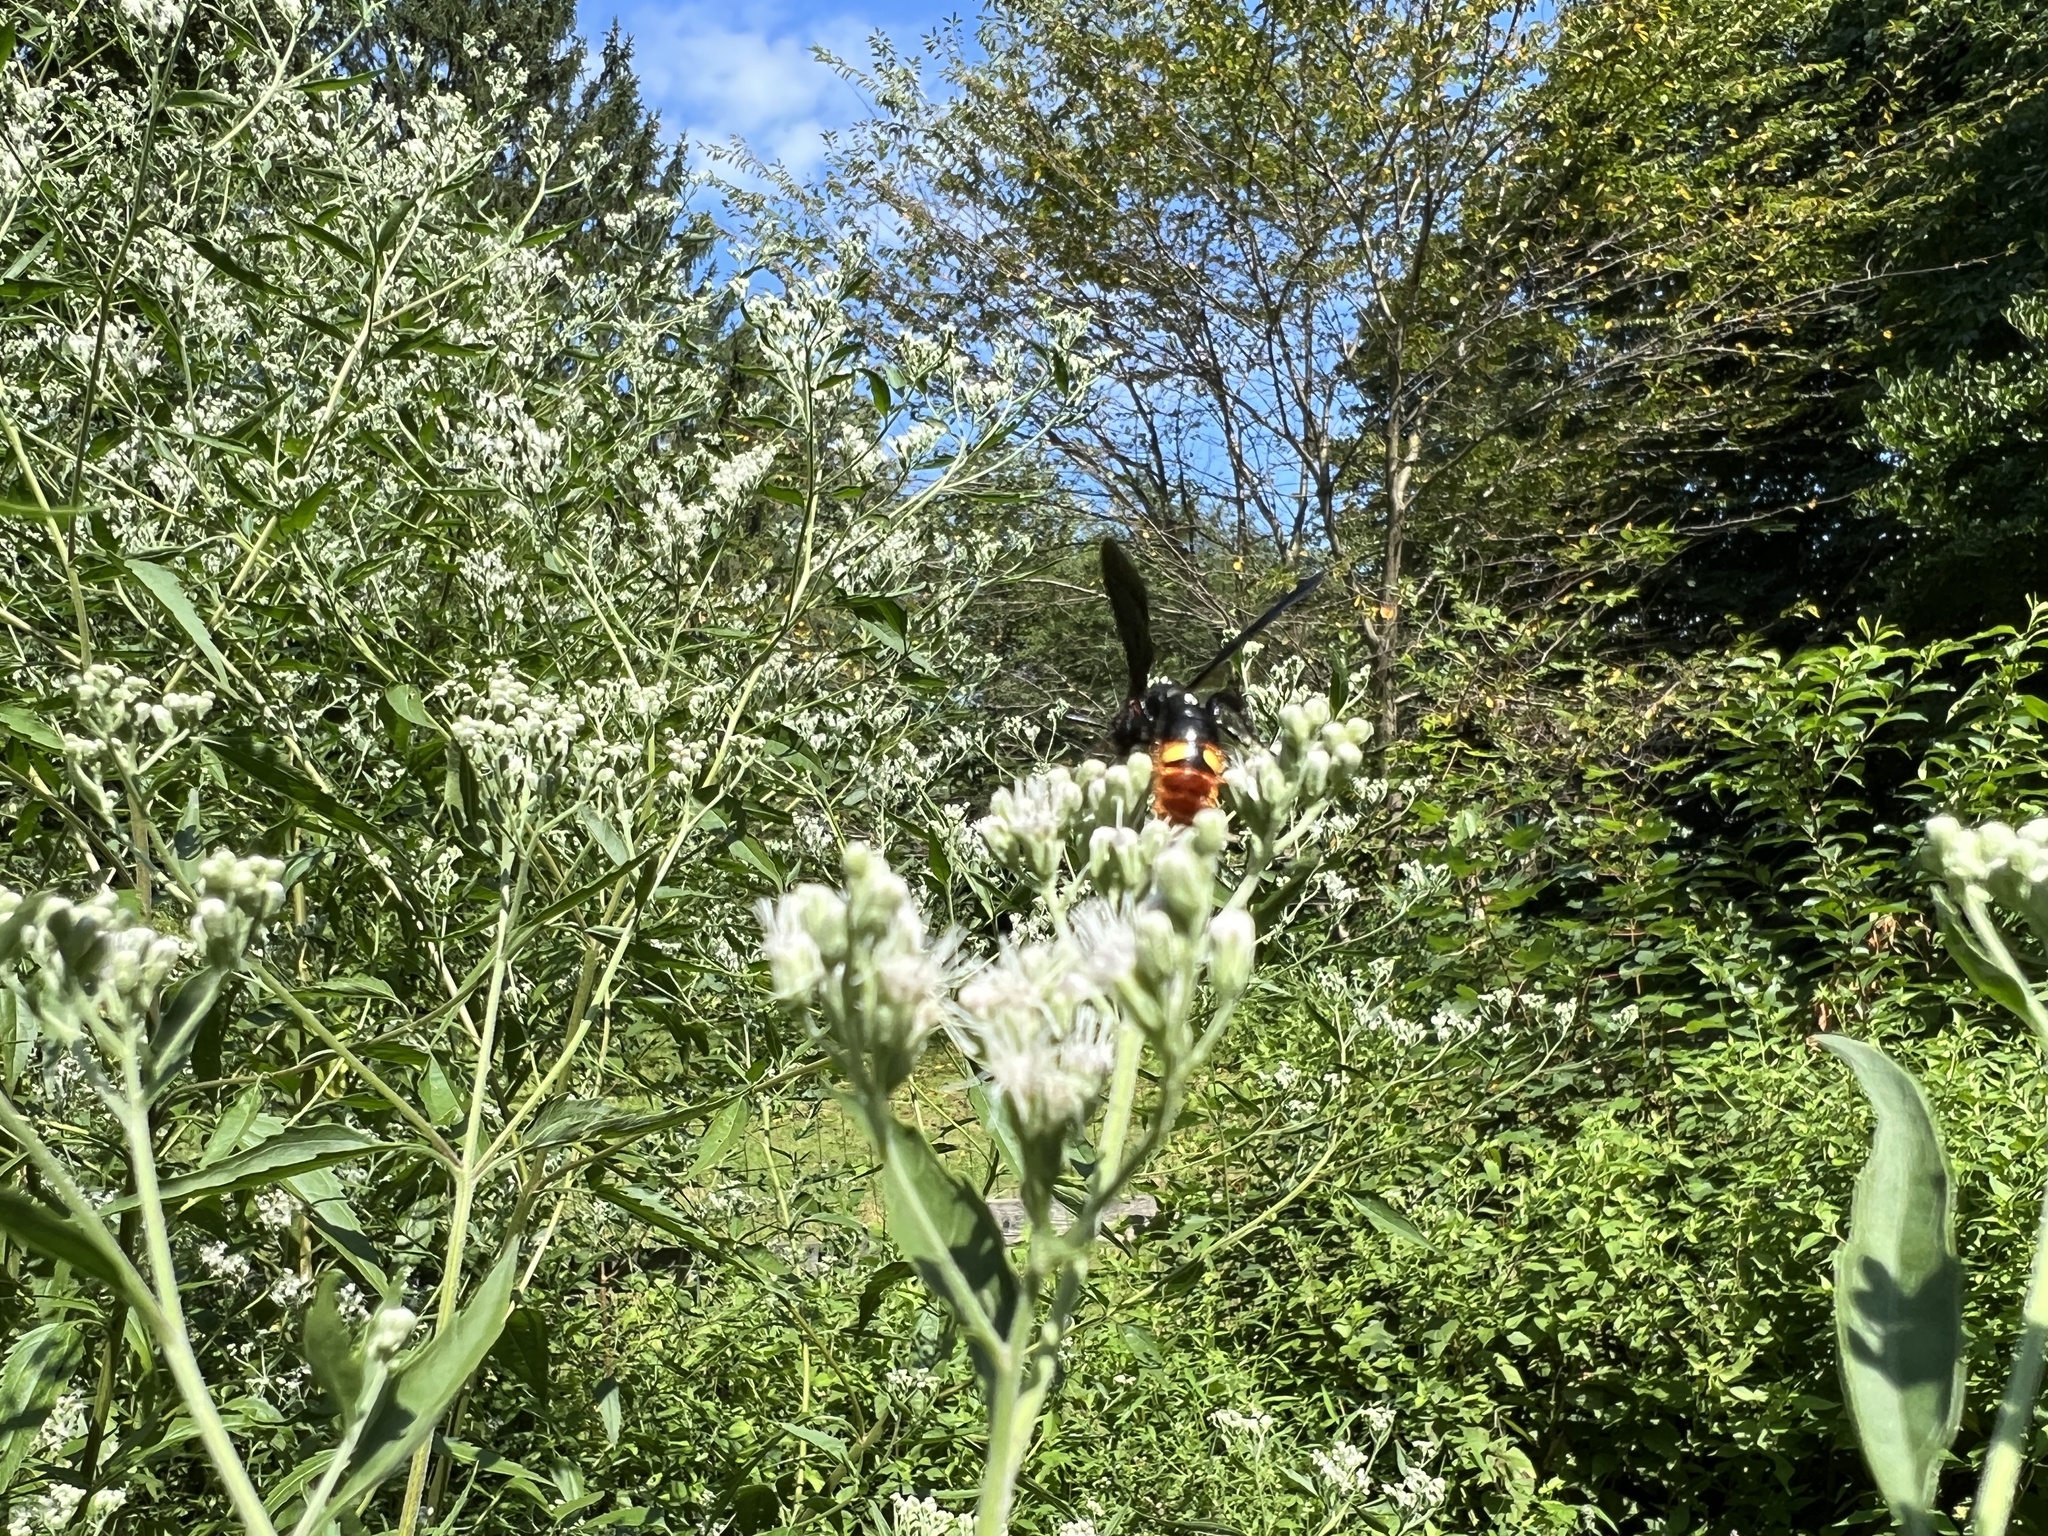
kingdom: Animalia
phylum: Arthropoda
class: Insecta
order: Hymenoptera
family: Scoliidae
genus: Scolia
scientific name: Scolia dubia
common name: Blue-winged scoliid wasp
